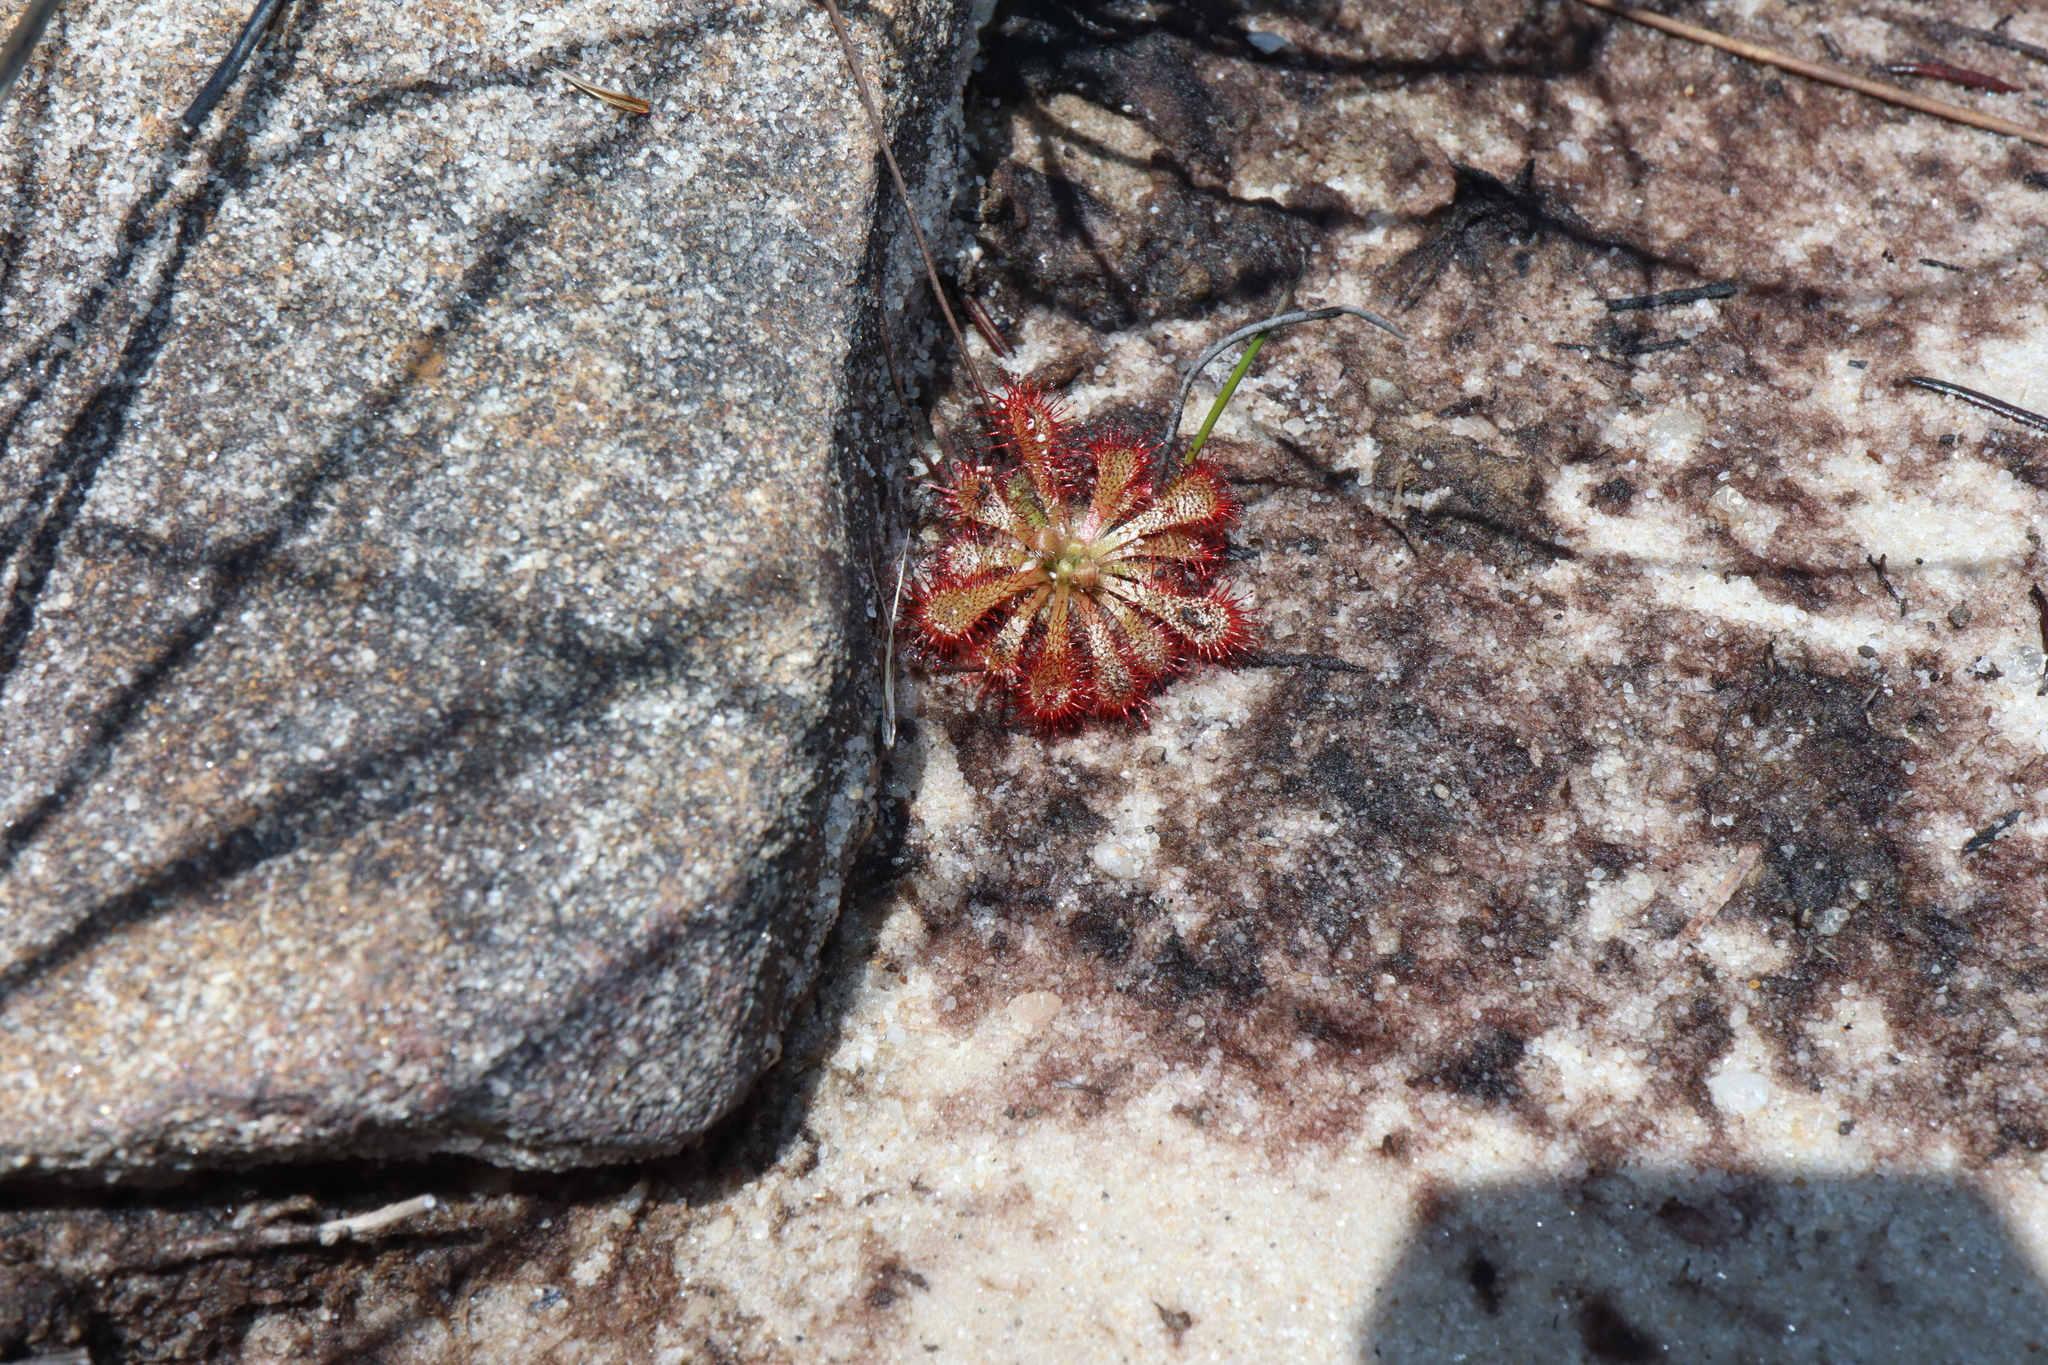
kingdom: Plantae
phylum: Tracheophyta
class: Magnoliopsida
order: Caryophyllales
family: Droseraceae
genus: Drosera
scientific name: Drosera spatulata
